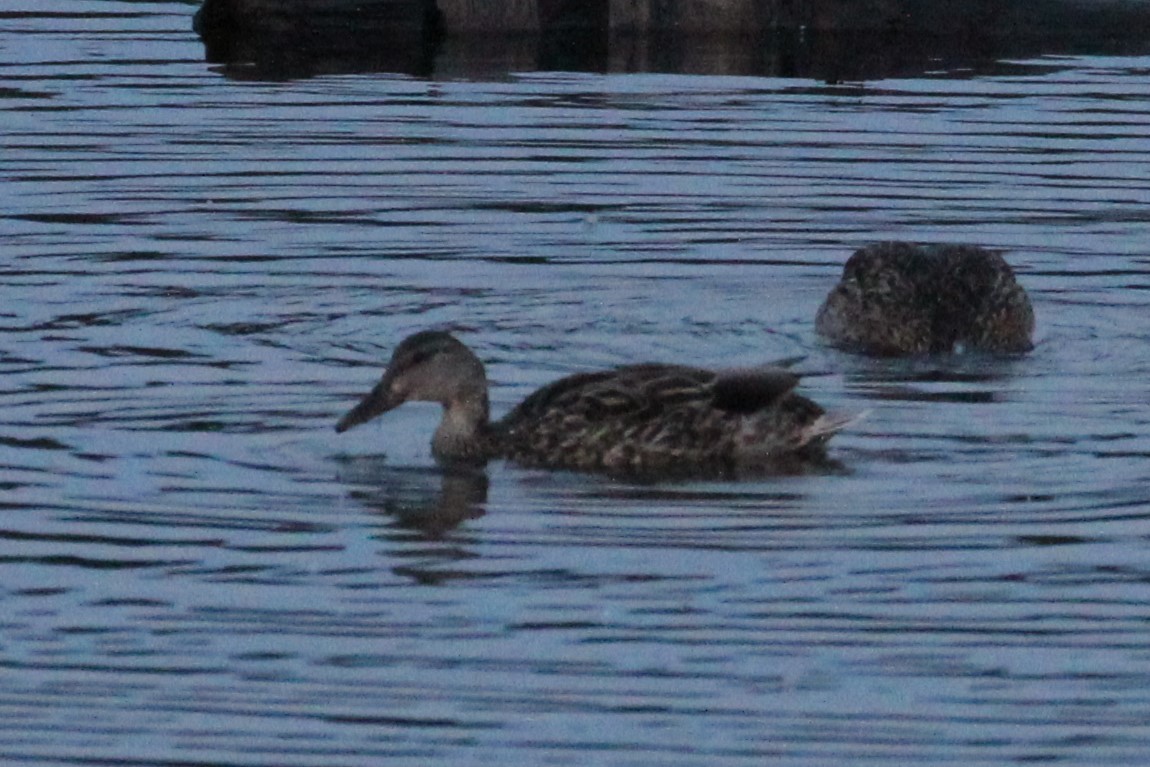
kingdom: Animalia
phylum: Chordata
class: Aves
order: Anseriformes
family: Anatidae
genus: Anas
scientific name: Anas platyrhynchos
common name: Mallard
